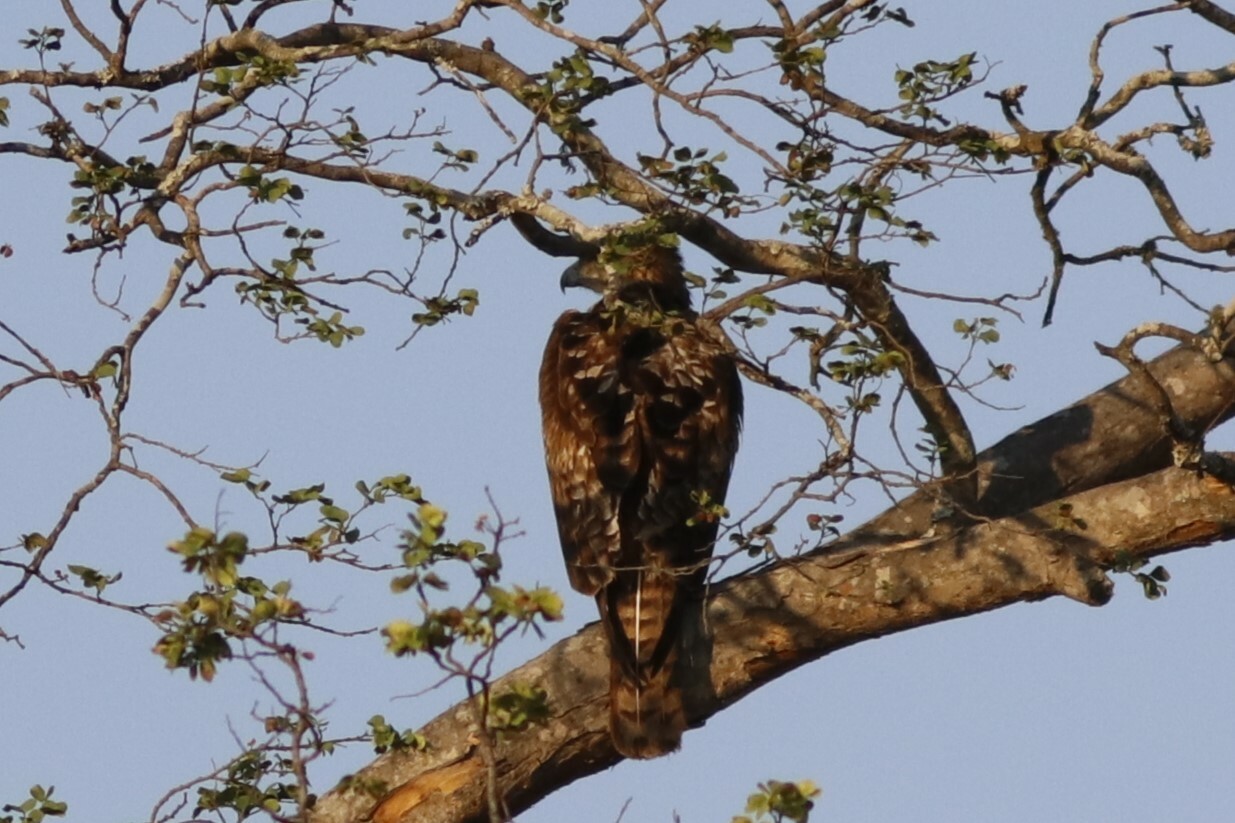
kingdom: Animalia
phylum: Chordata
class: Aves
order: Accipitriformes
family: Accipitridae
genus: Hieraaetus
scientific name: Hieraaetus wahlbergi
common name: Wahlberg's eagle
